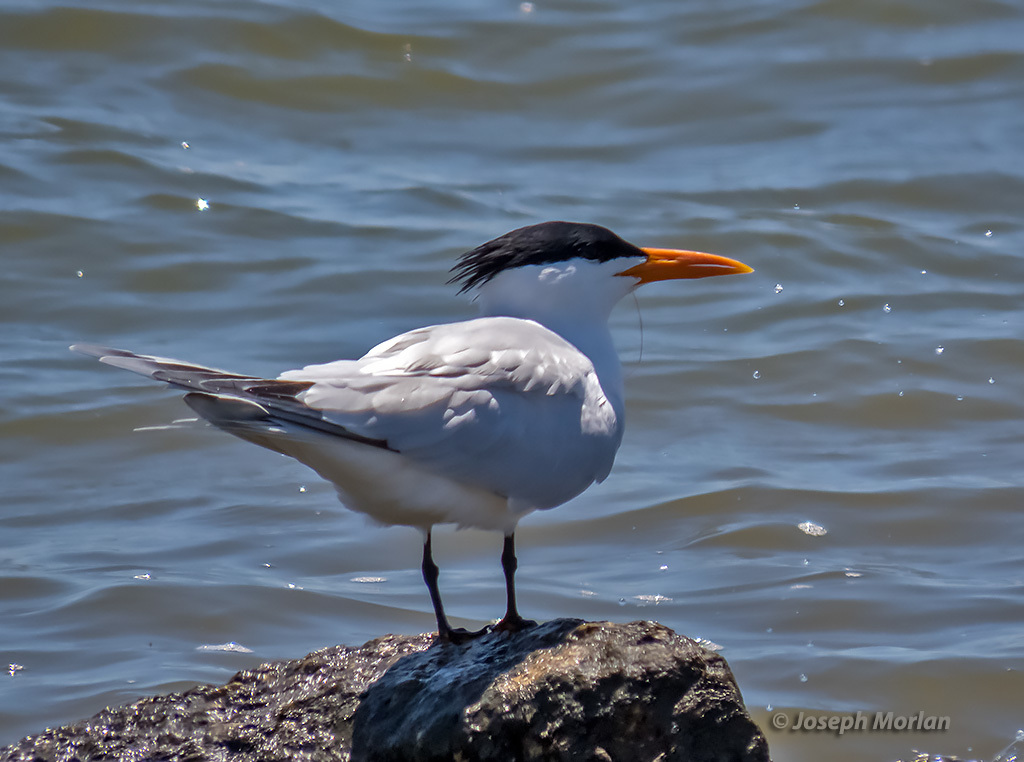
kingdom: Animalia
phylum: Chordata
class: Aves
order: Charadriiformes
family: Laridae
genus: Thalasseus
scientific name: Thalasseus maximus
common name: Royal tern
